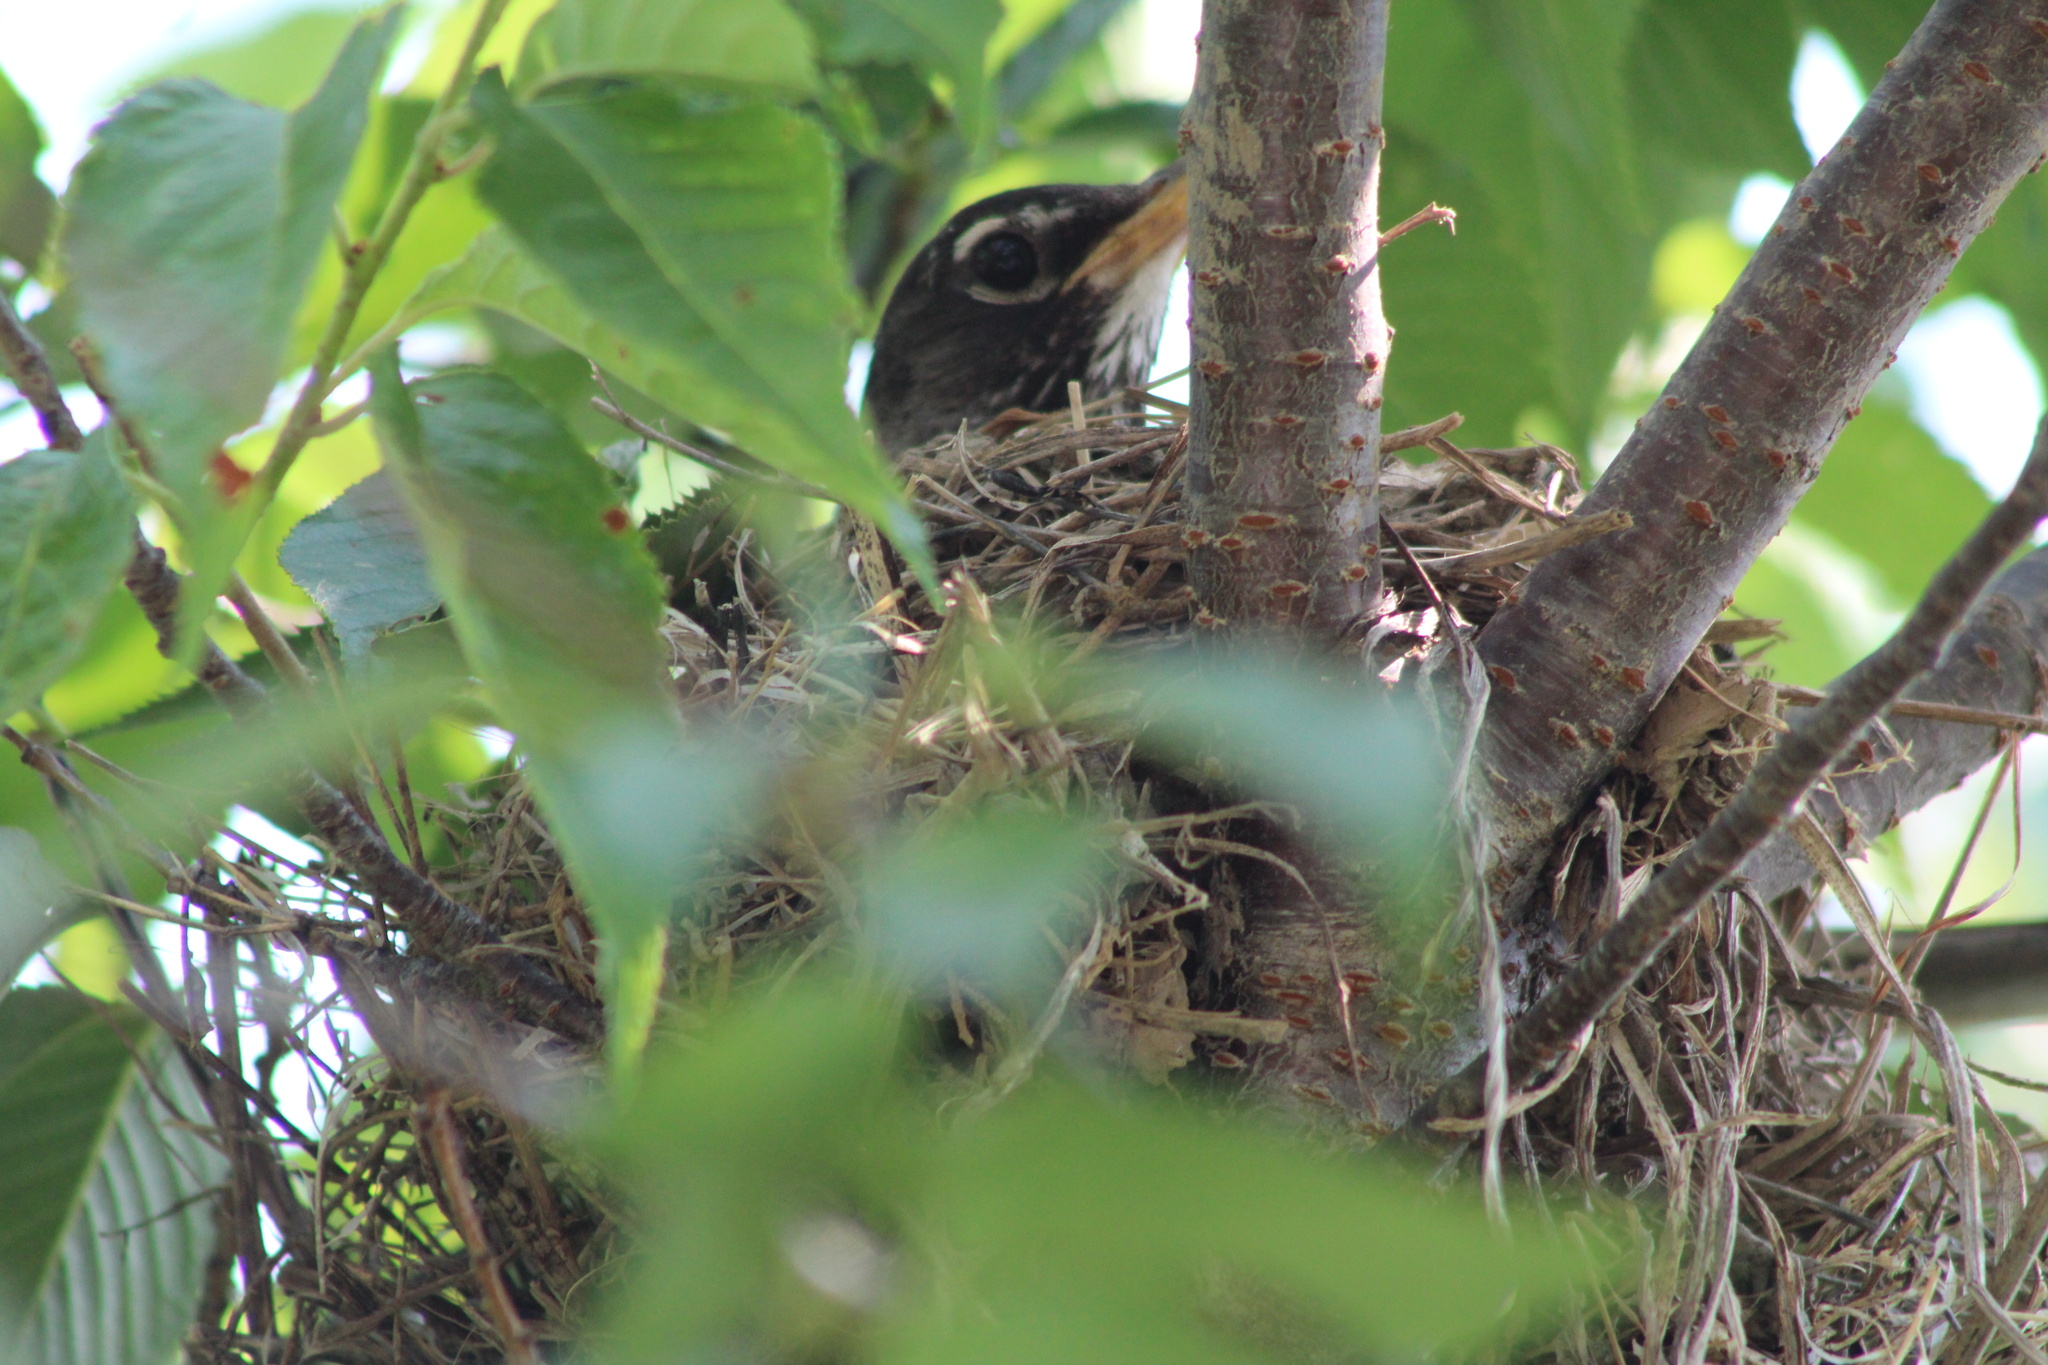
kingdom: Animalia
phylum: Chordata
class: Aves
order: Passeriformes
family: Turdidae
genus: Turdus
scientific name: Turdus migratorius
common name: American robin
